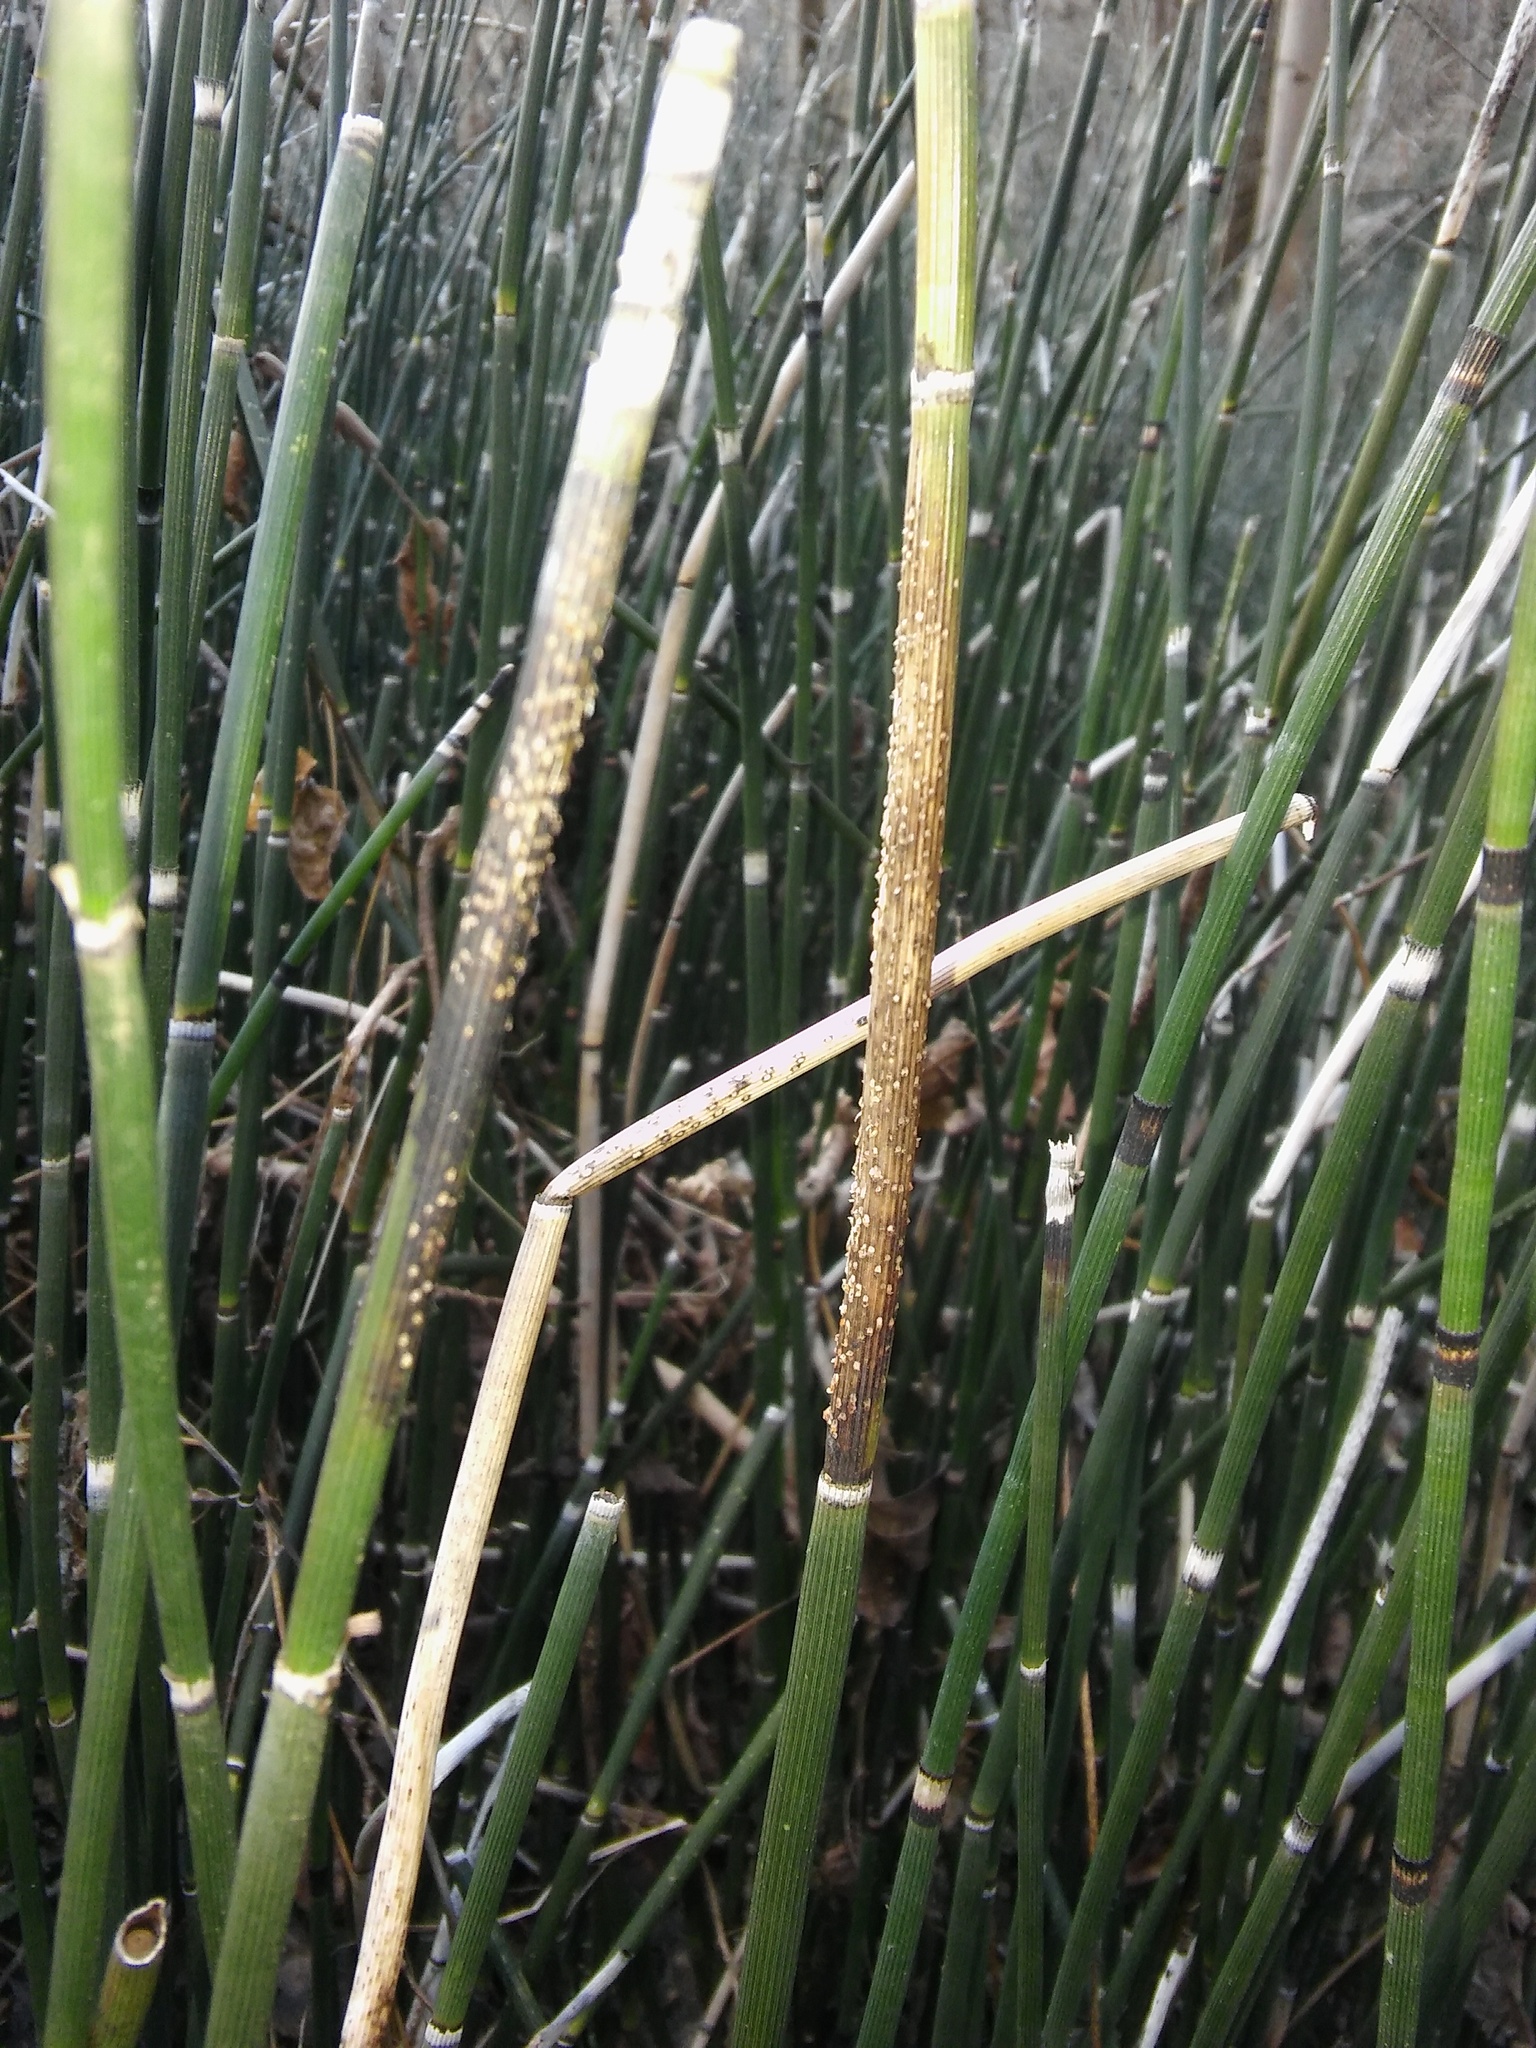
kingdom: Plantae
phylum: Tracheophyta
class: Polypodiopsida
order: Equisetales
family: Equisetaceae
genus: Equisetum
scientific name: Equisetum hyemale
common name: Rough horsetail
